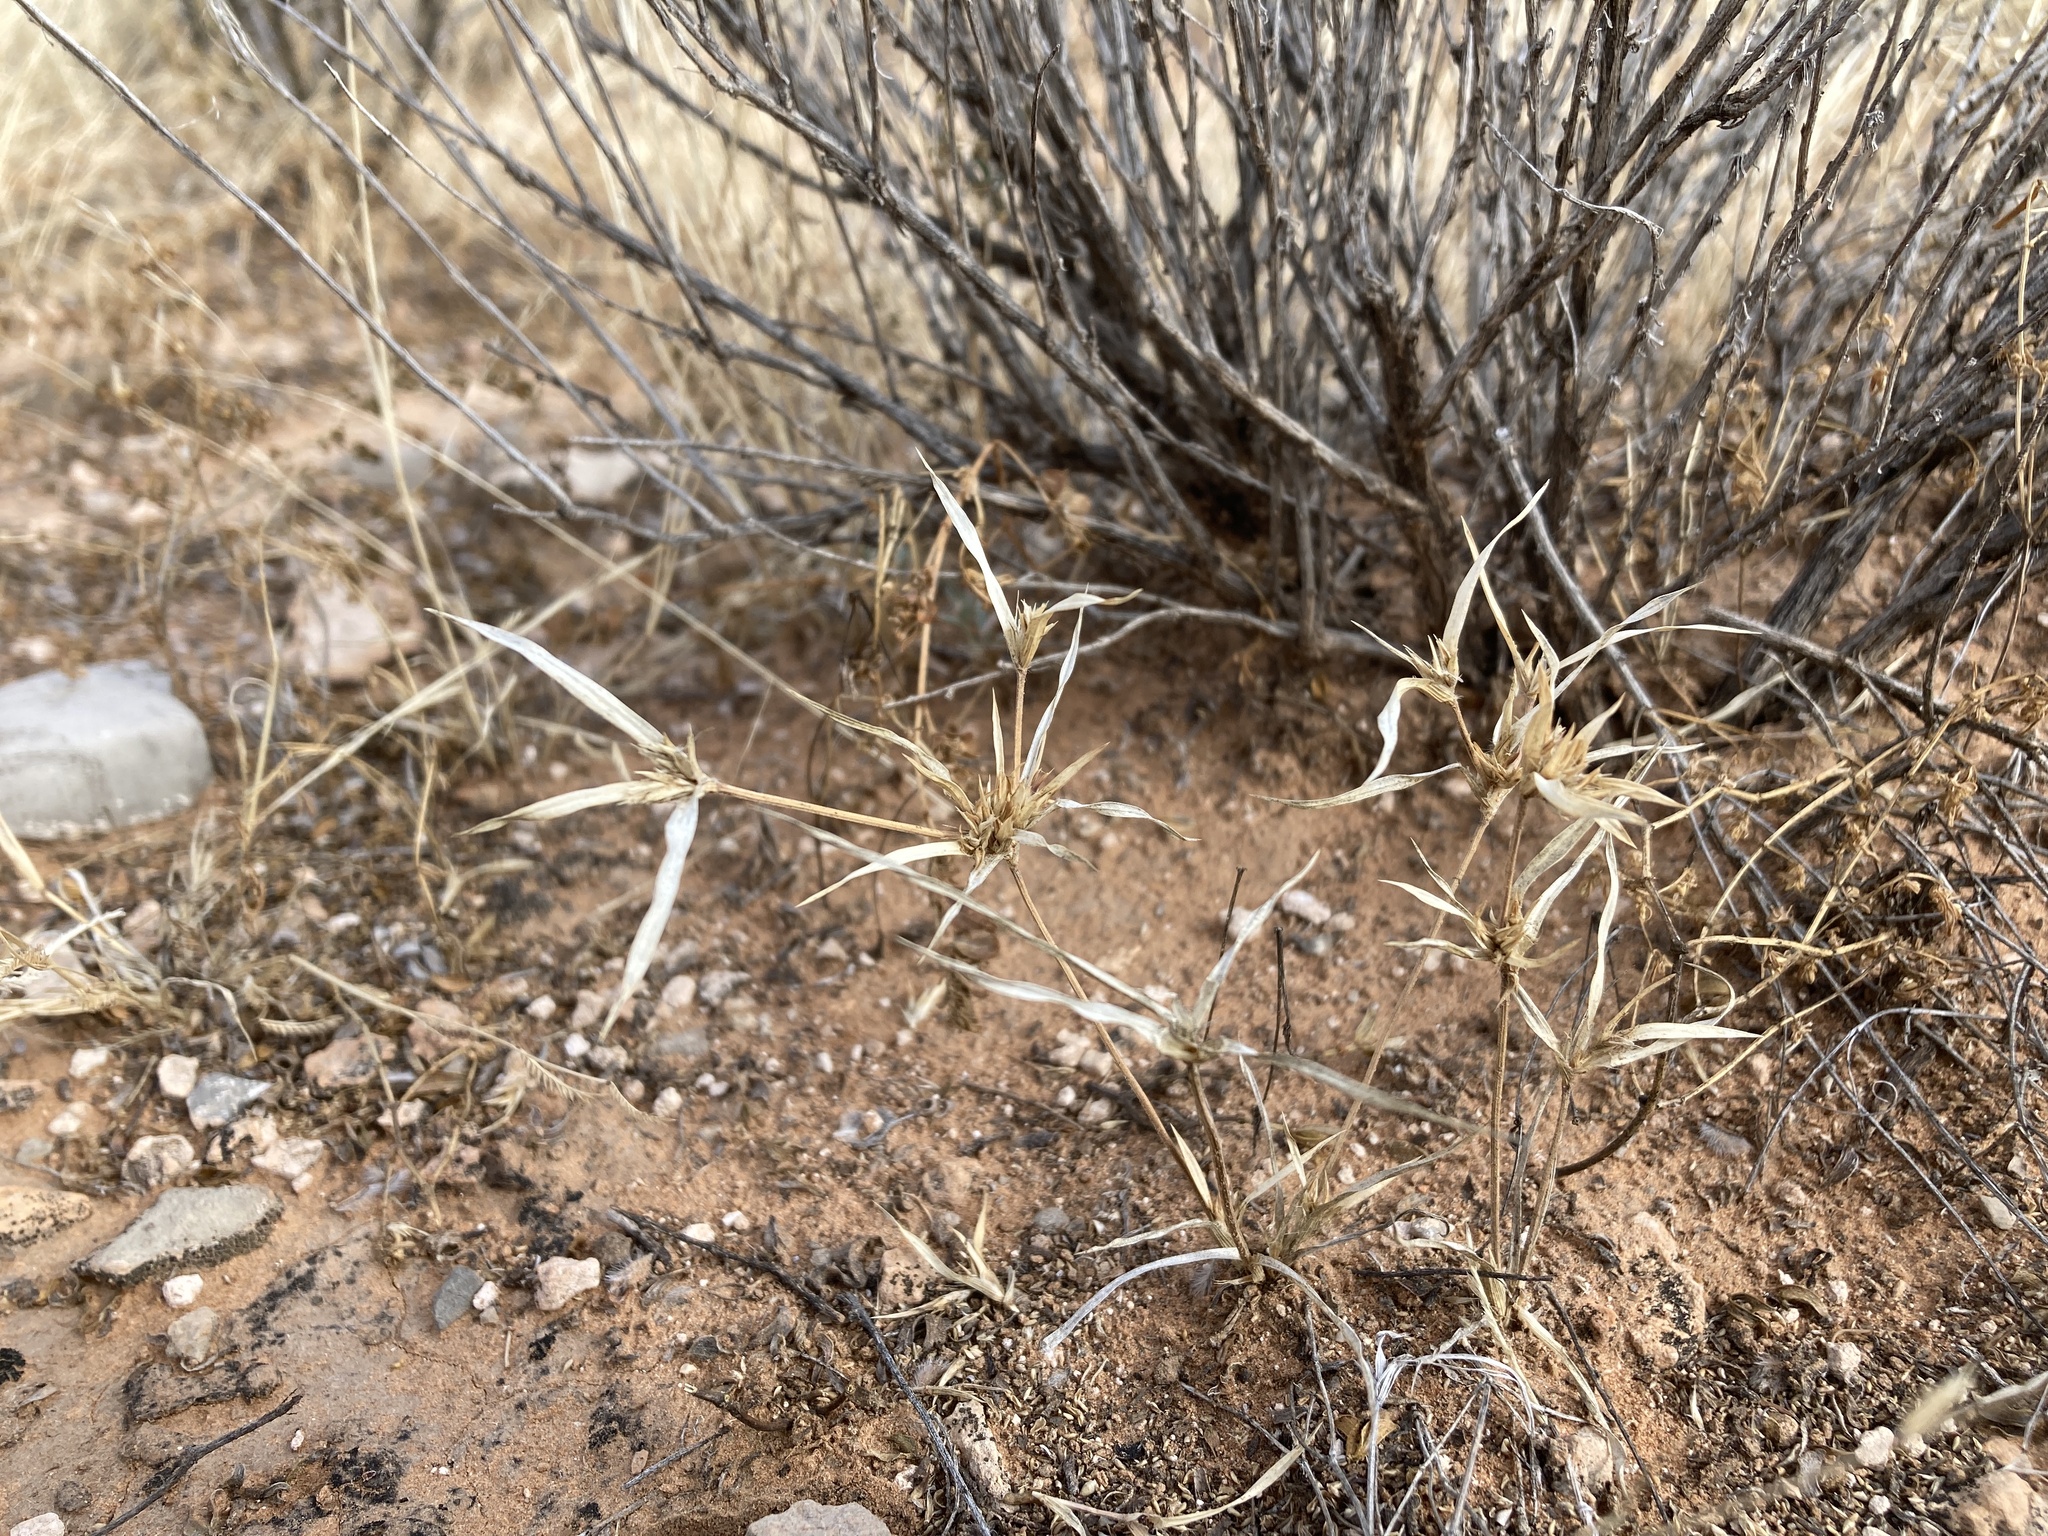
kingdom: Plantae
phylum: Tracheophyta
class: Liliopsida
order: Poales
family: Poaceae
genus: Munroa
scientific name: Munroa squarrosa
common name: False buffalo grass
